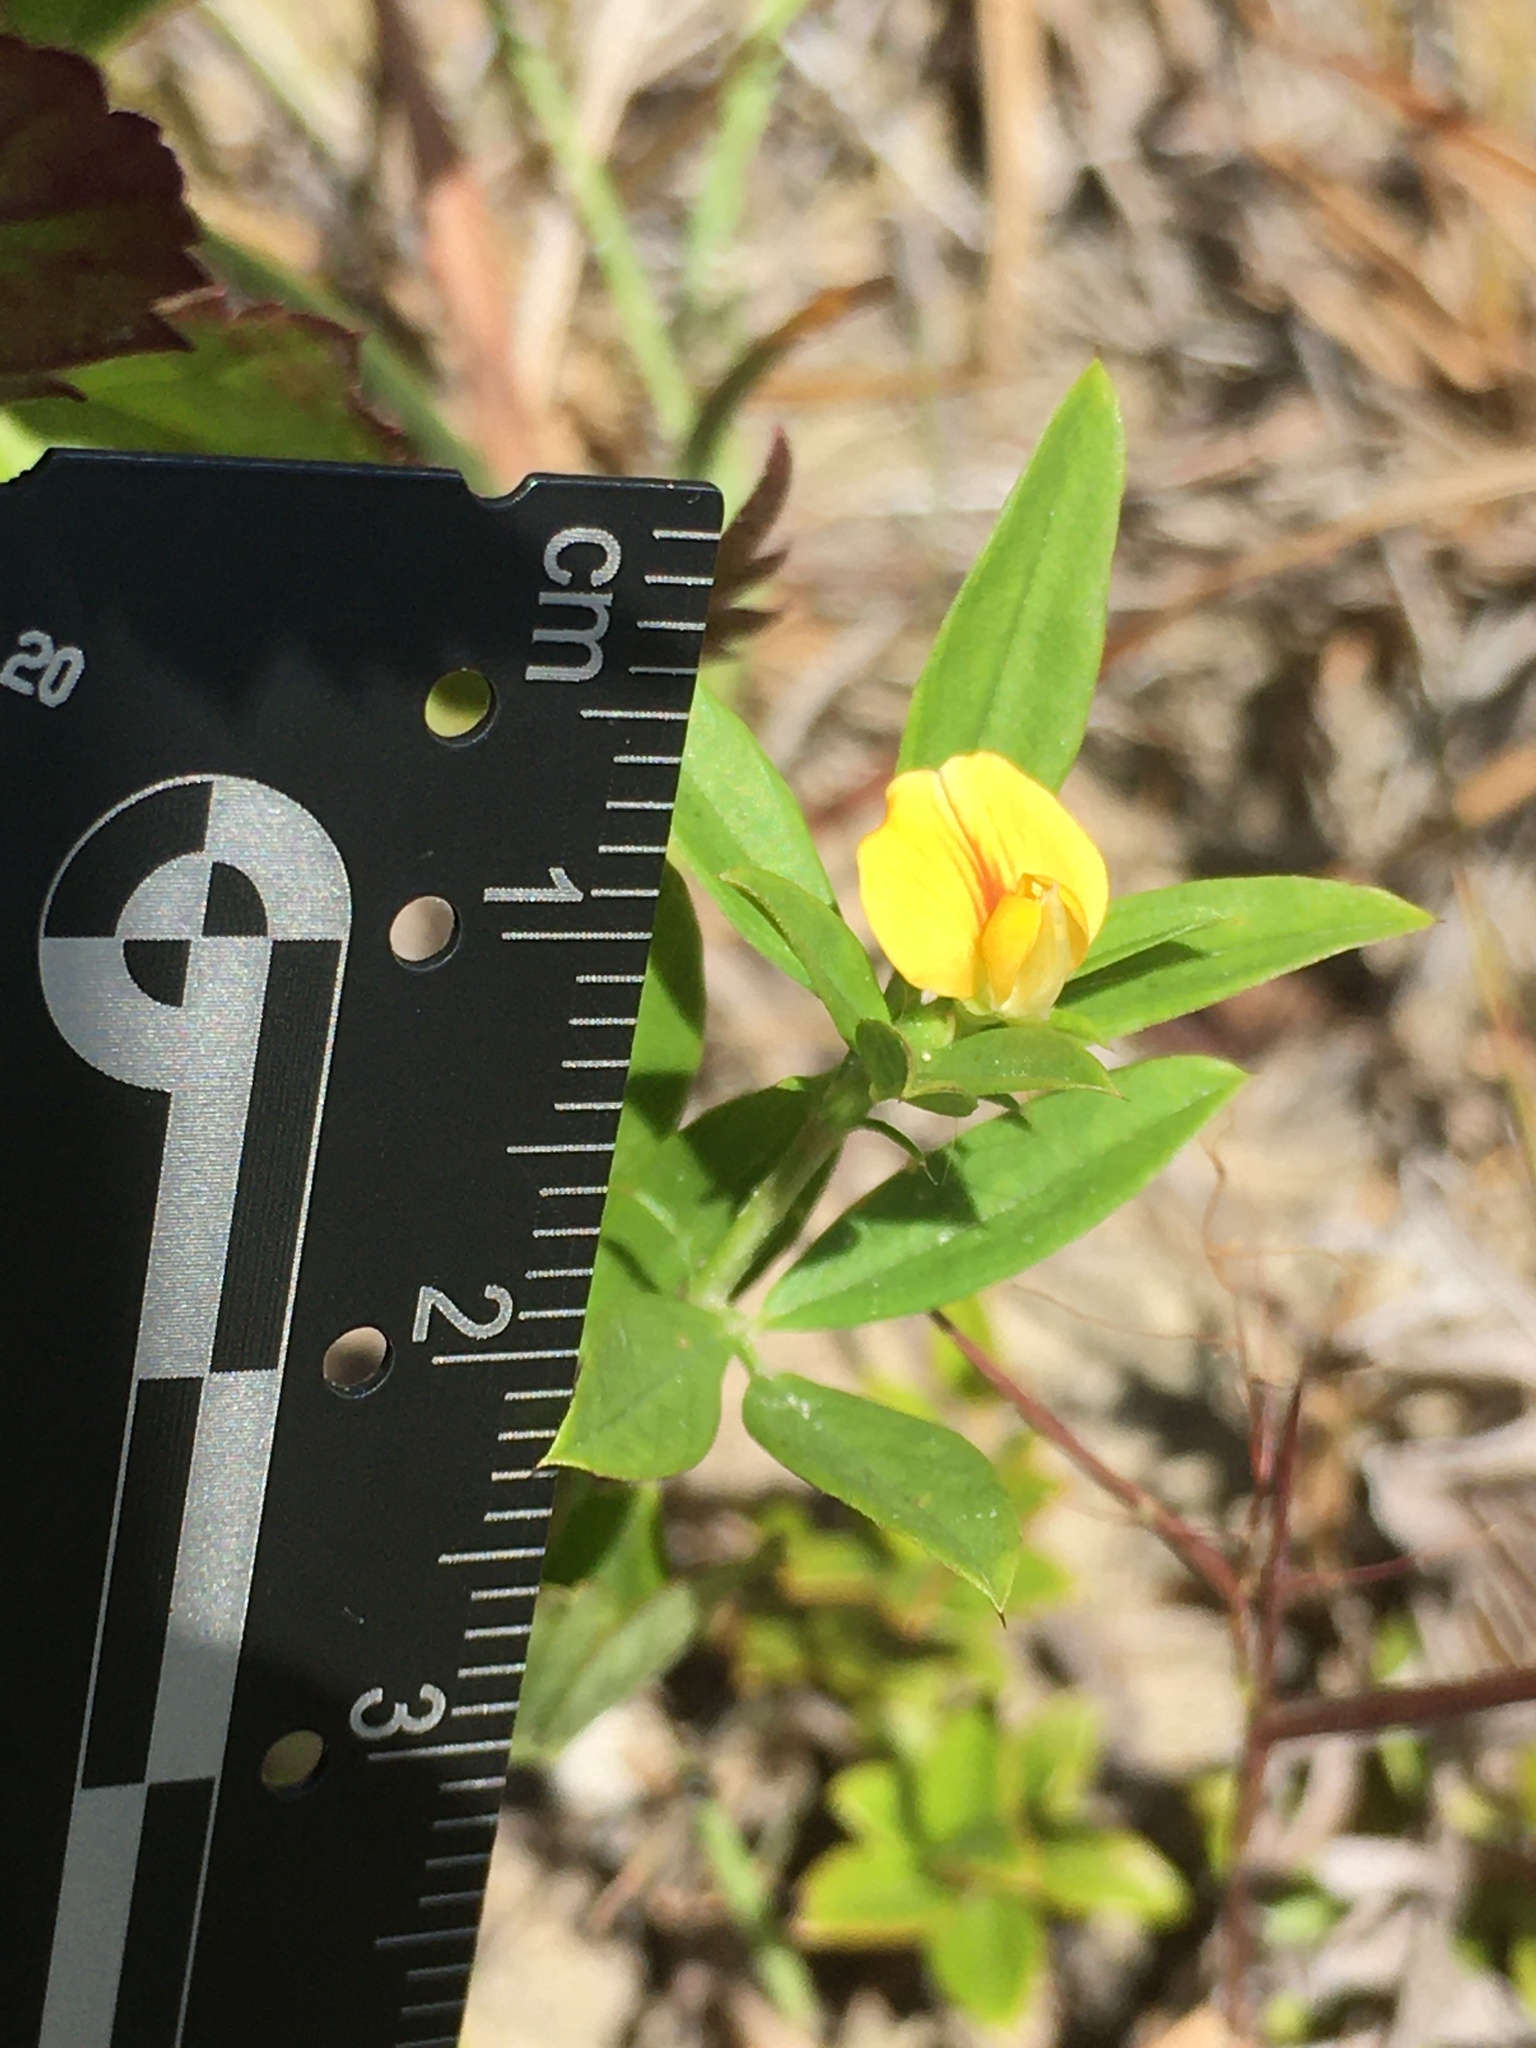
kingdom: Plantae
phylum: Tracheophyta
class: Magnoliopsida
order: Fabales
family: Fabaceae
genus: Stylosanthes
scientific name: Stylosanthes biflora
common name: Two-flower pencil-flower
